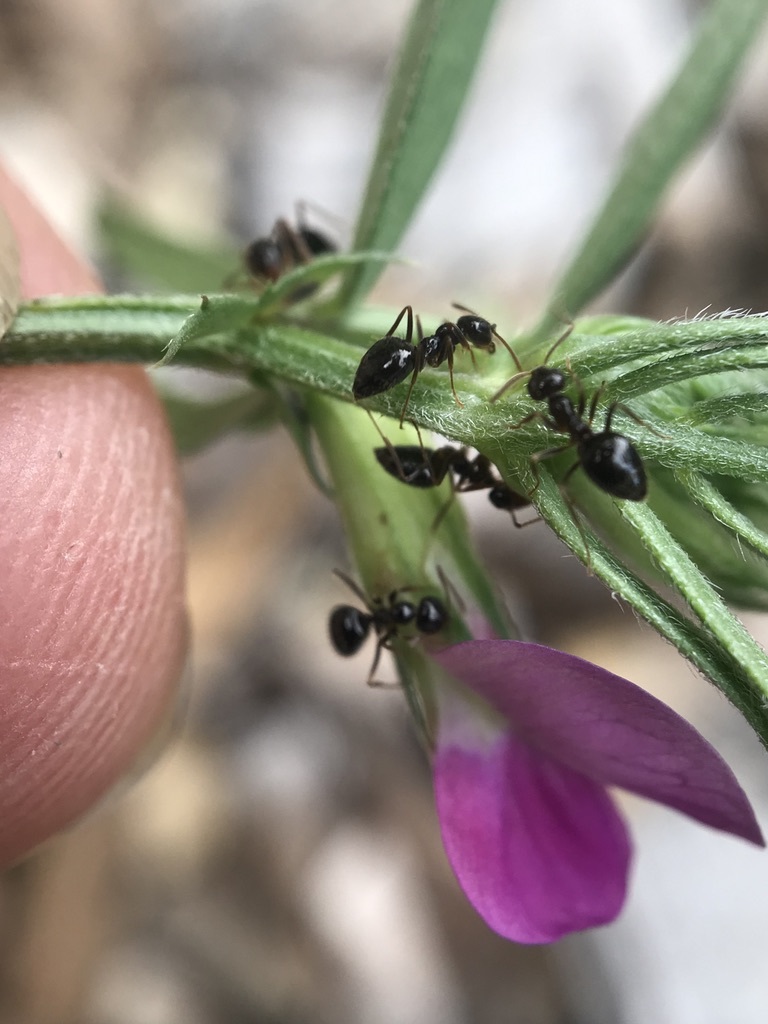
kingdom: Animalia
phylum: Arthropoda
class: Insecta
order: Hymenoptera
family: Formicidae
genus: Prenolepis
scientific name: Prenolepis imparis
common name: Small honey ant
